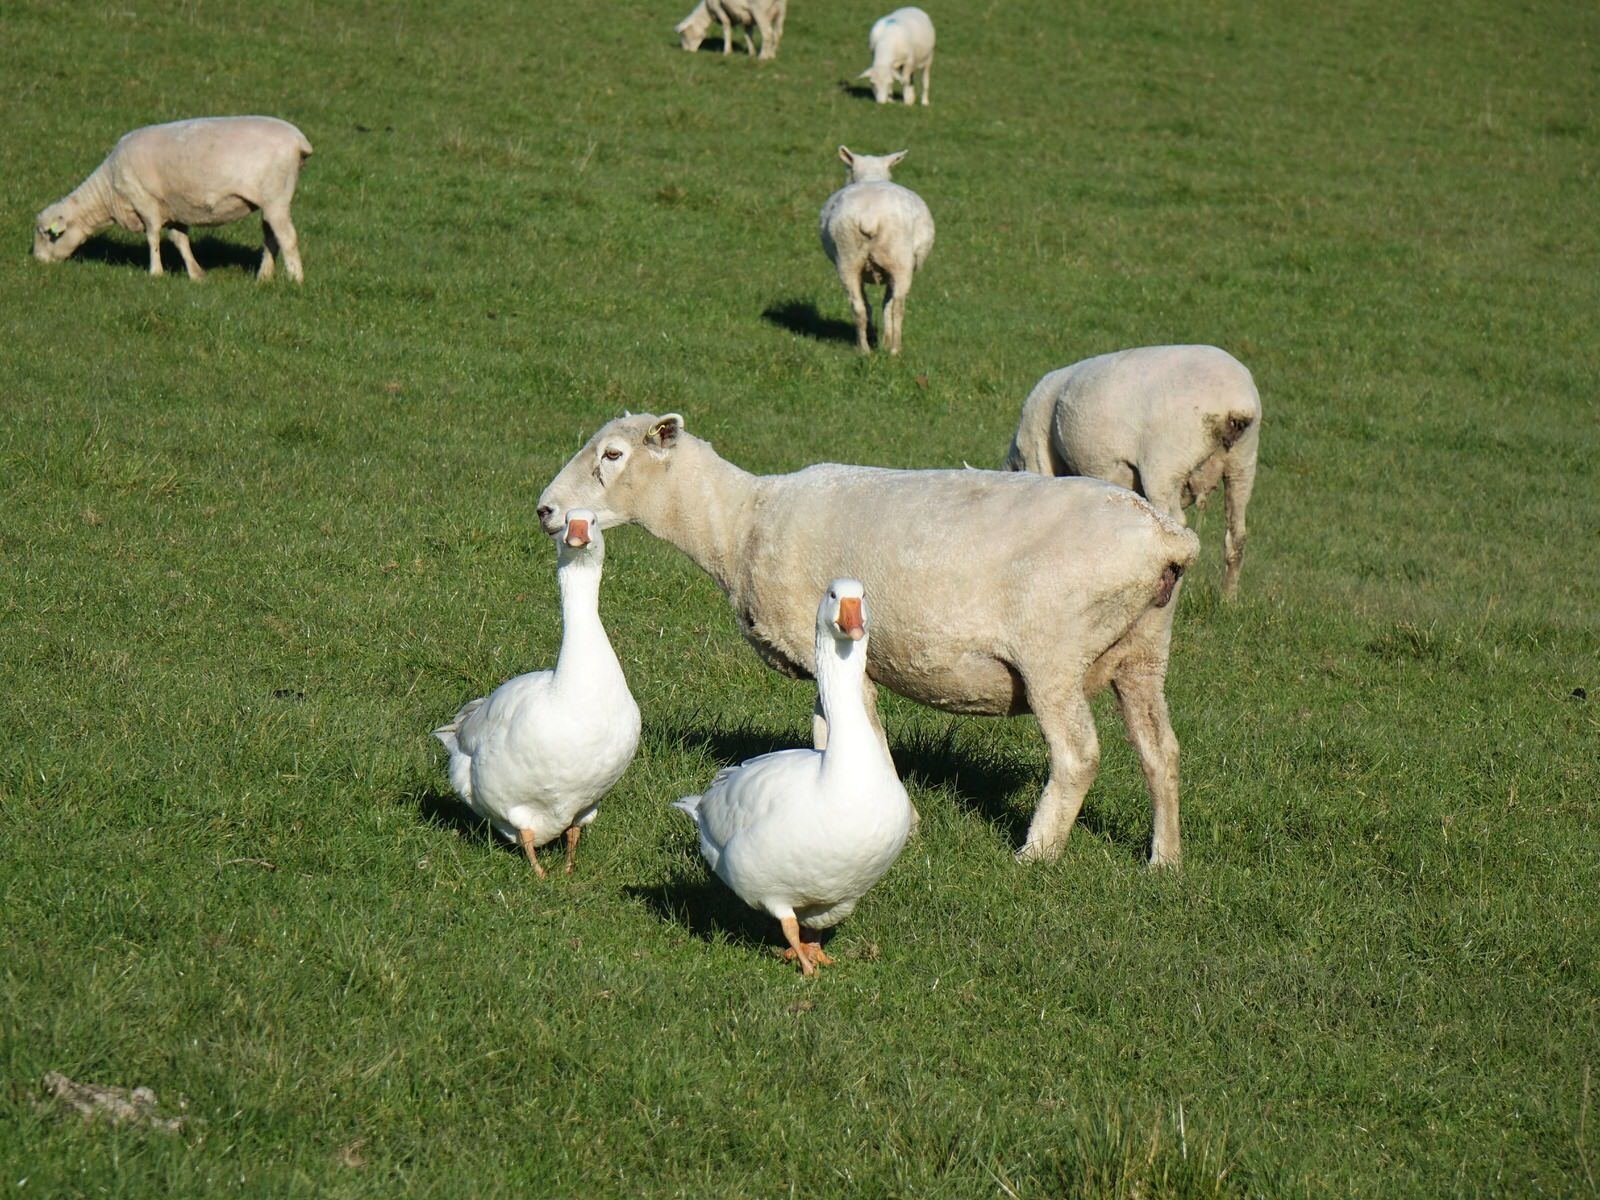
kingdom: Animalia
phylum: Chordata
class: Aves
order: Anseriformes
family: Anatidae
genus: Anser
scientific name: Anser anser
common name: Greylag goose
